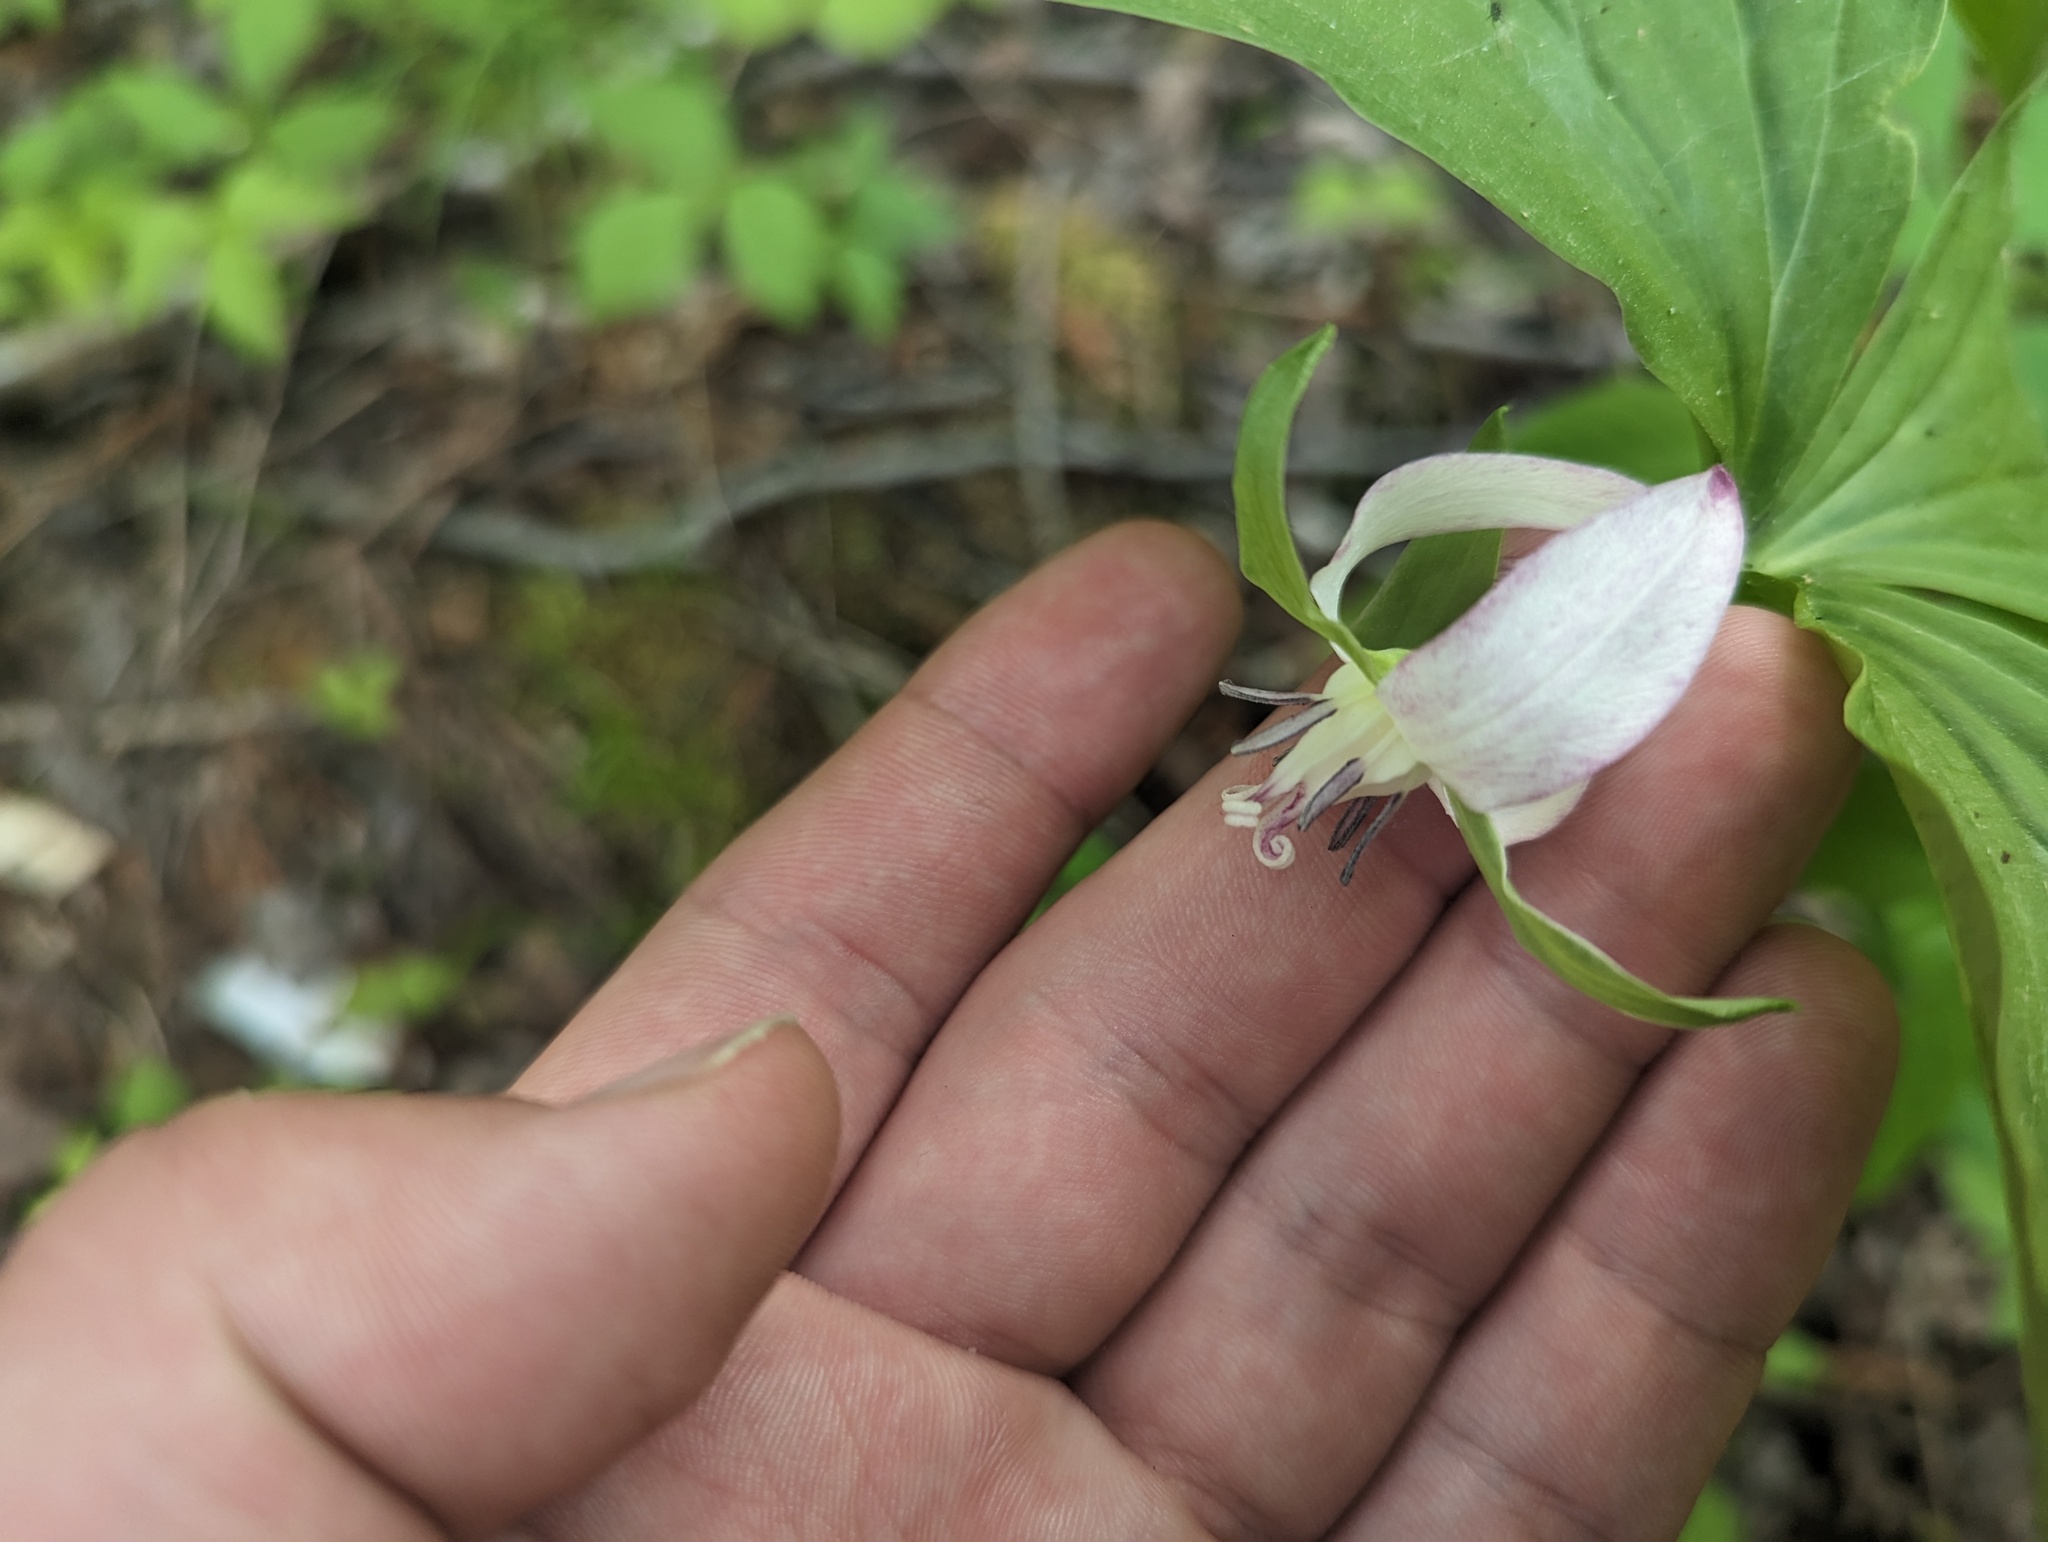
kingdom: Plantae
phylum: Tracheophyta
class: Liliopsida
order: Liliales
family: Melanthiaceae
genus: Trillium
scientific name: Trillium cernuum
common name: Nodding trillium
